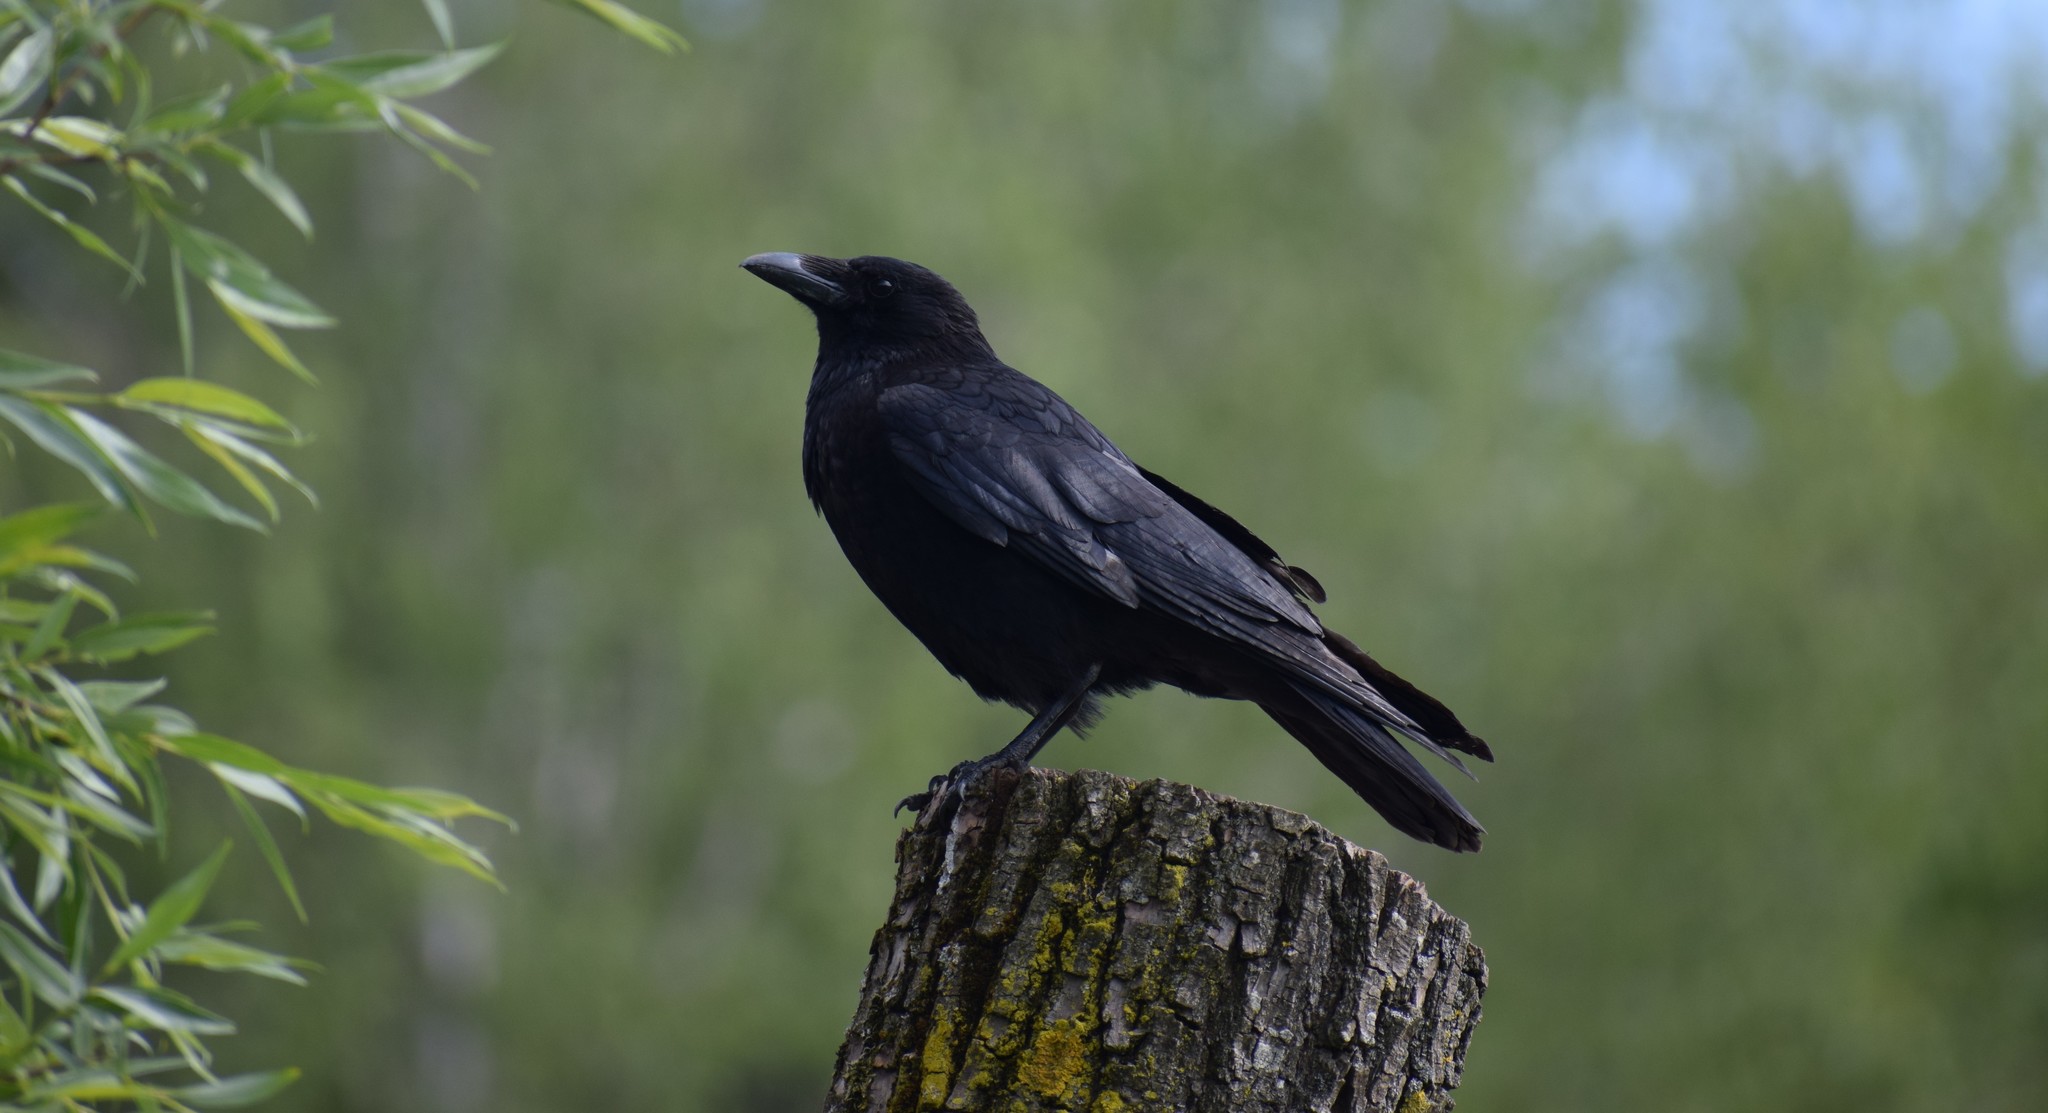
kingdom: Animalia
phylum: Chordata
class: Aves
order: Passeriformes
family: Corvidae
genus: Corvus
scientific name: Corvus corone
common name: Carrion crow
